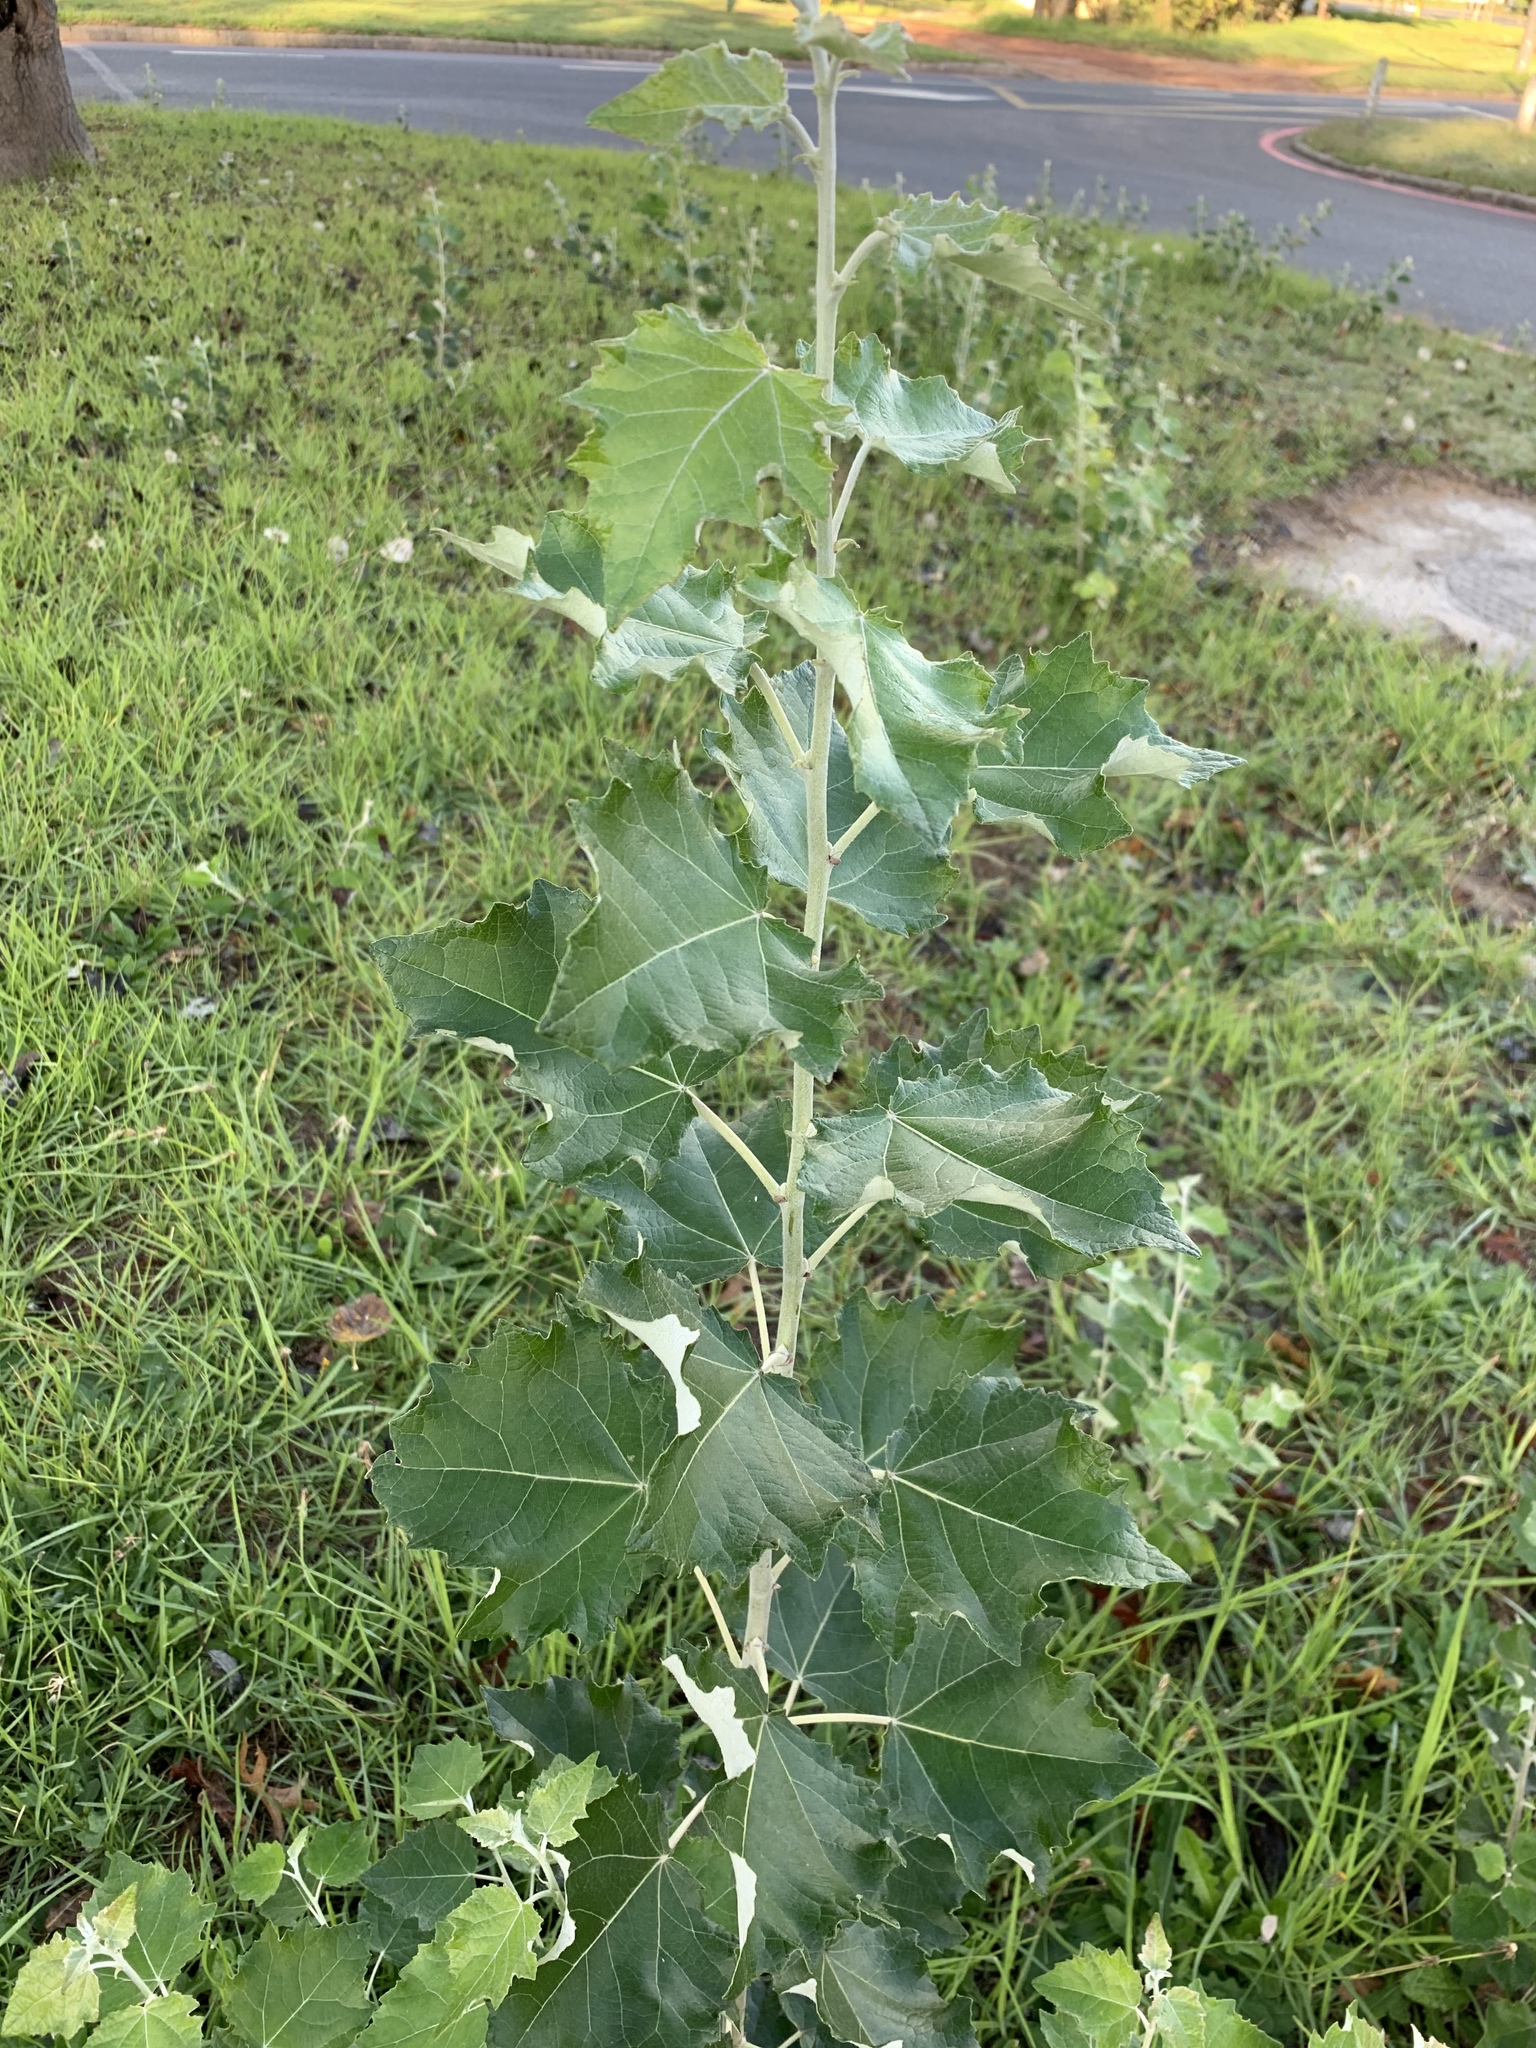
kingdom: Plantae
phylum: Tracheophyta
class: Magnoliopsida
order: Malpighiales
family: Salicaceae
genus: Populus
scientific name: Populus canescens
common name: Gray poplar
